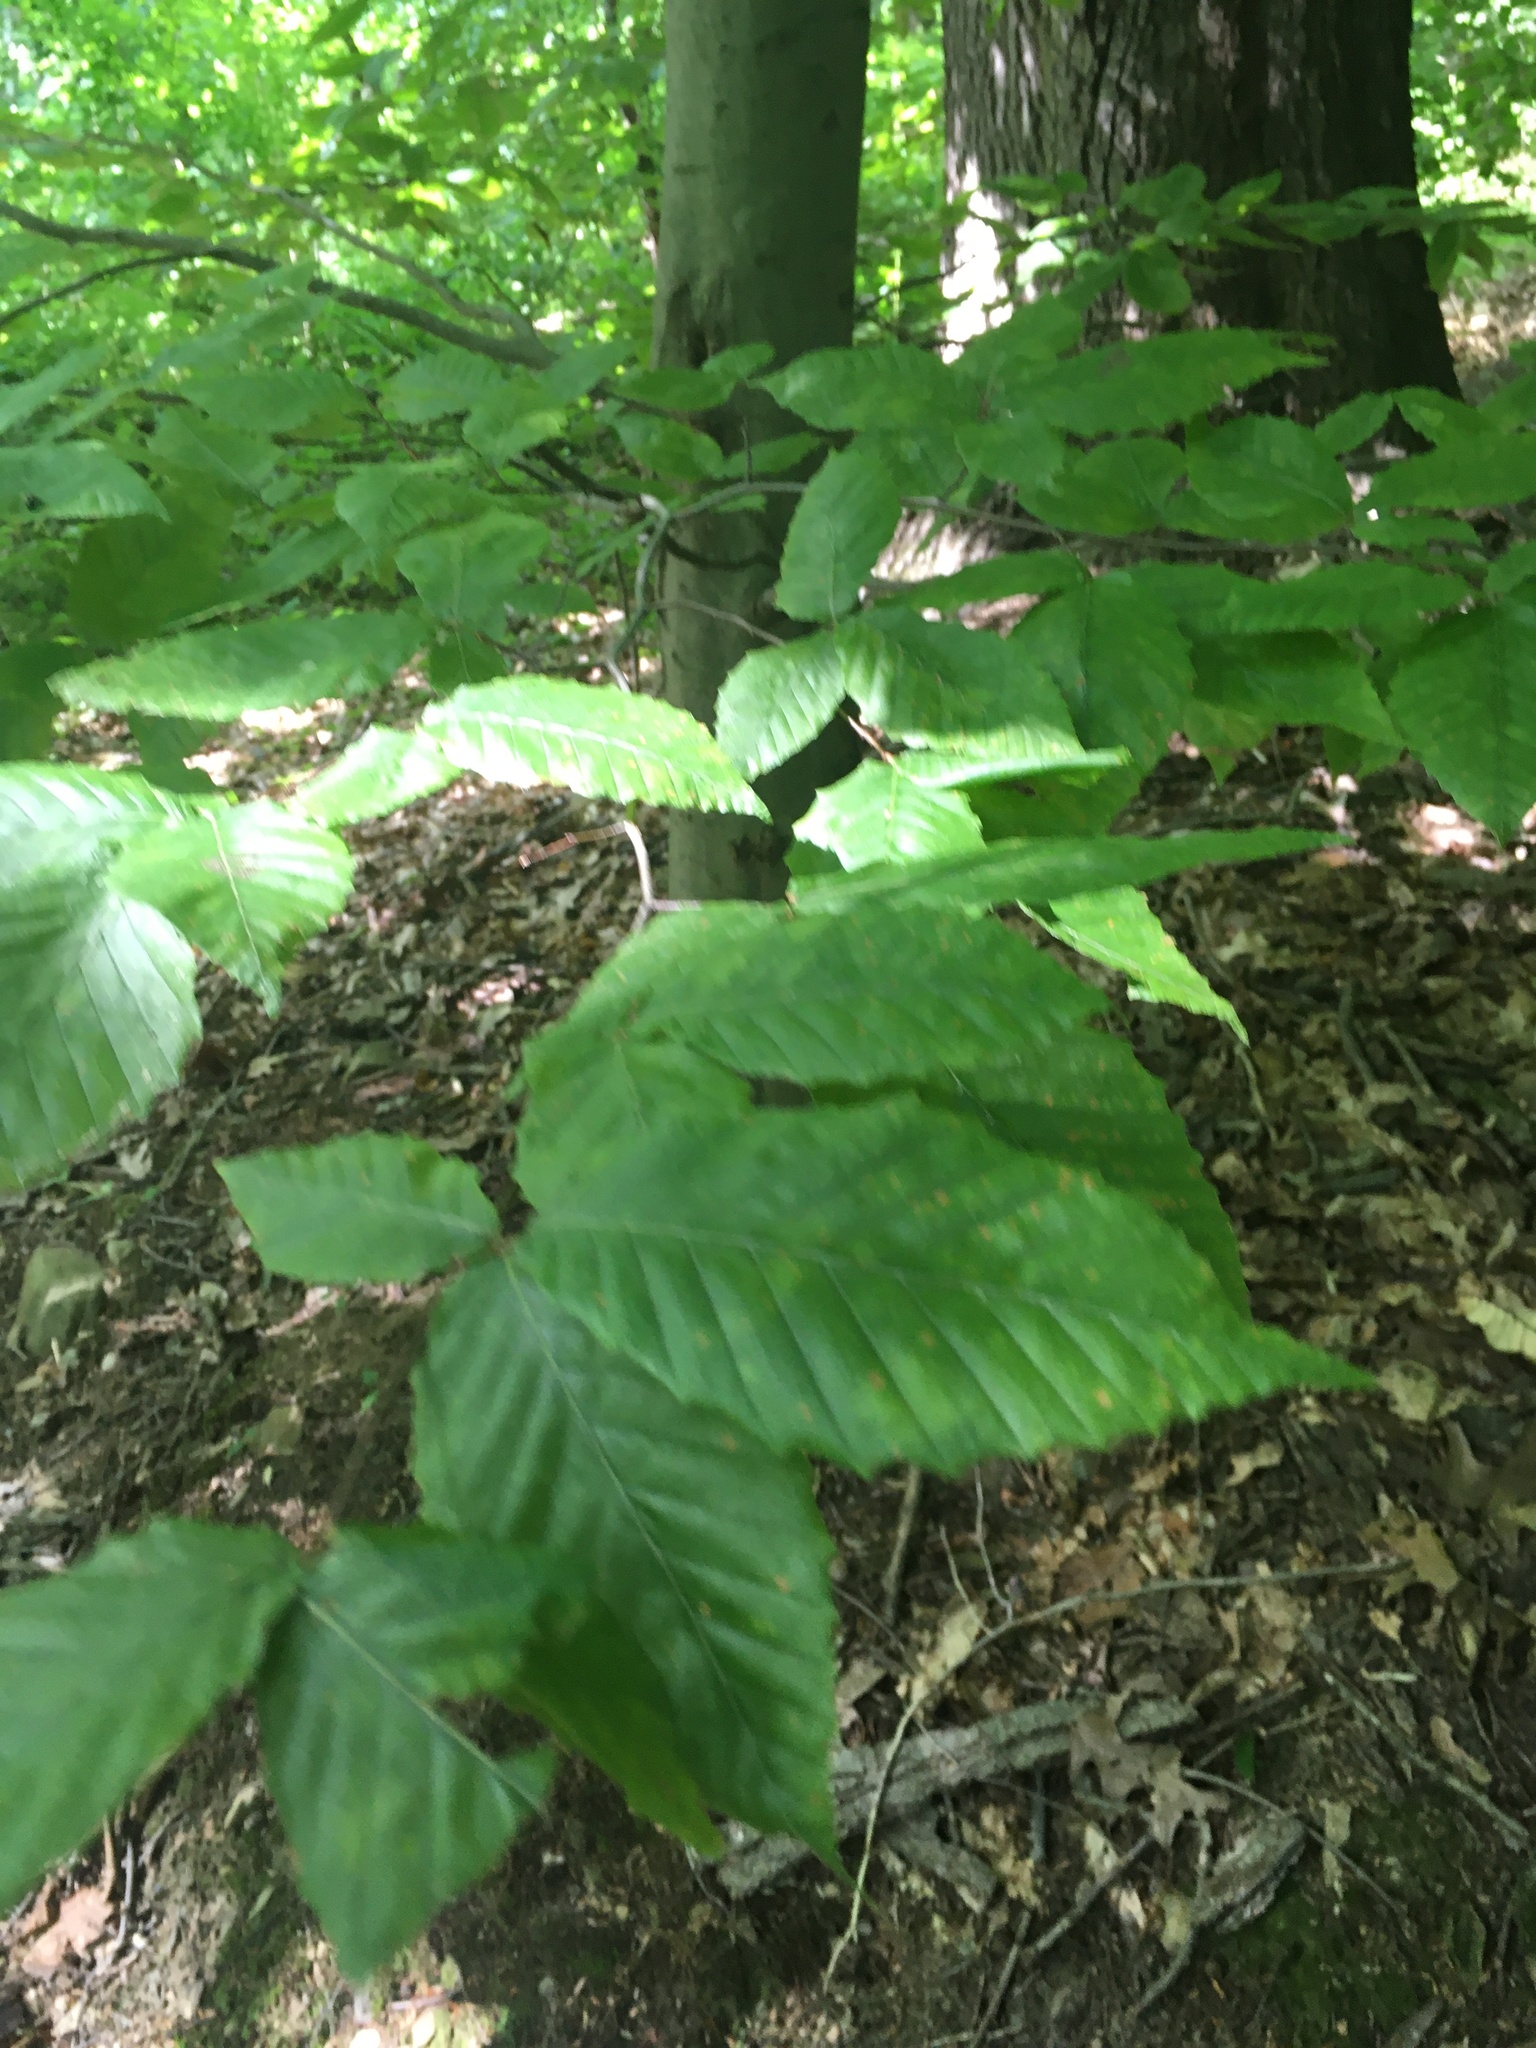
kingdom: Plantae
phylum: Tracheophyta
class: Magnoliopsida
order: Fagales
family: Fagaceae
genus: Fagus
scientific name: Fagus grandifolia
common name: American beech
